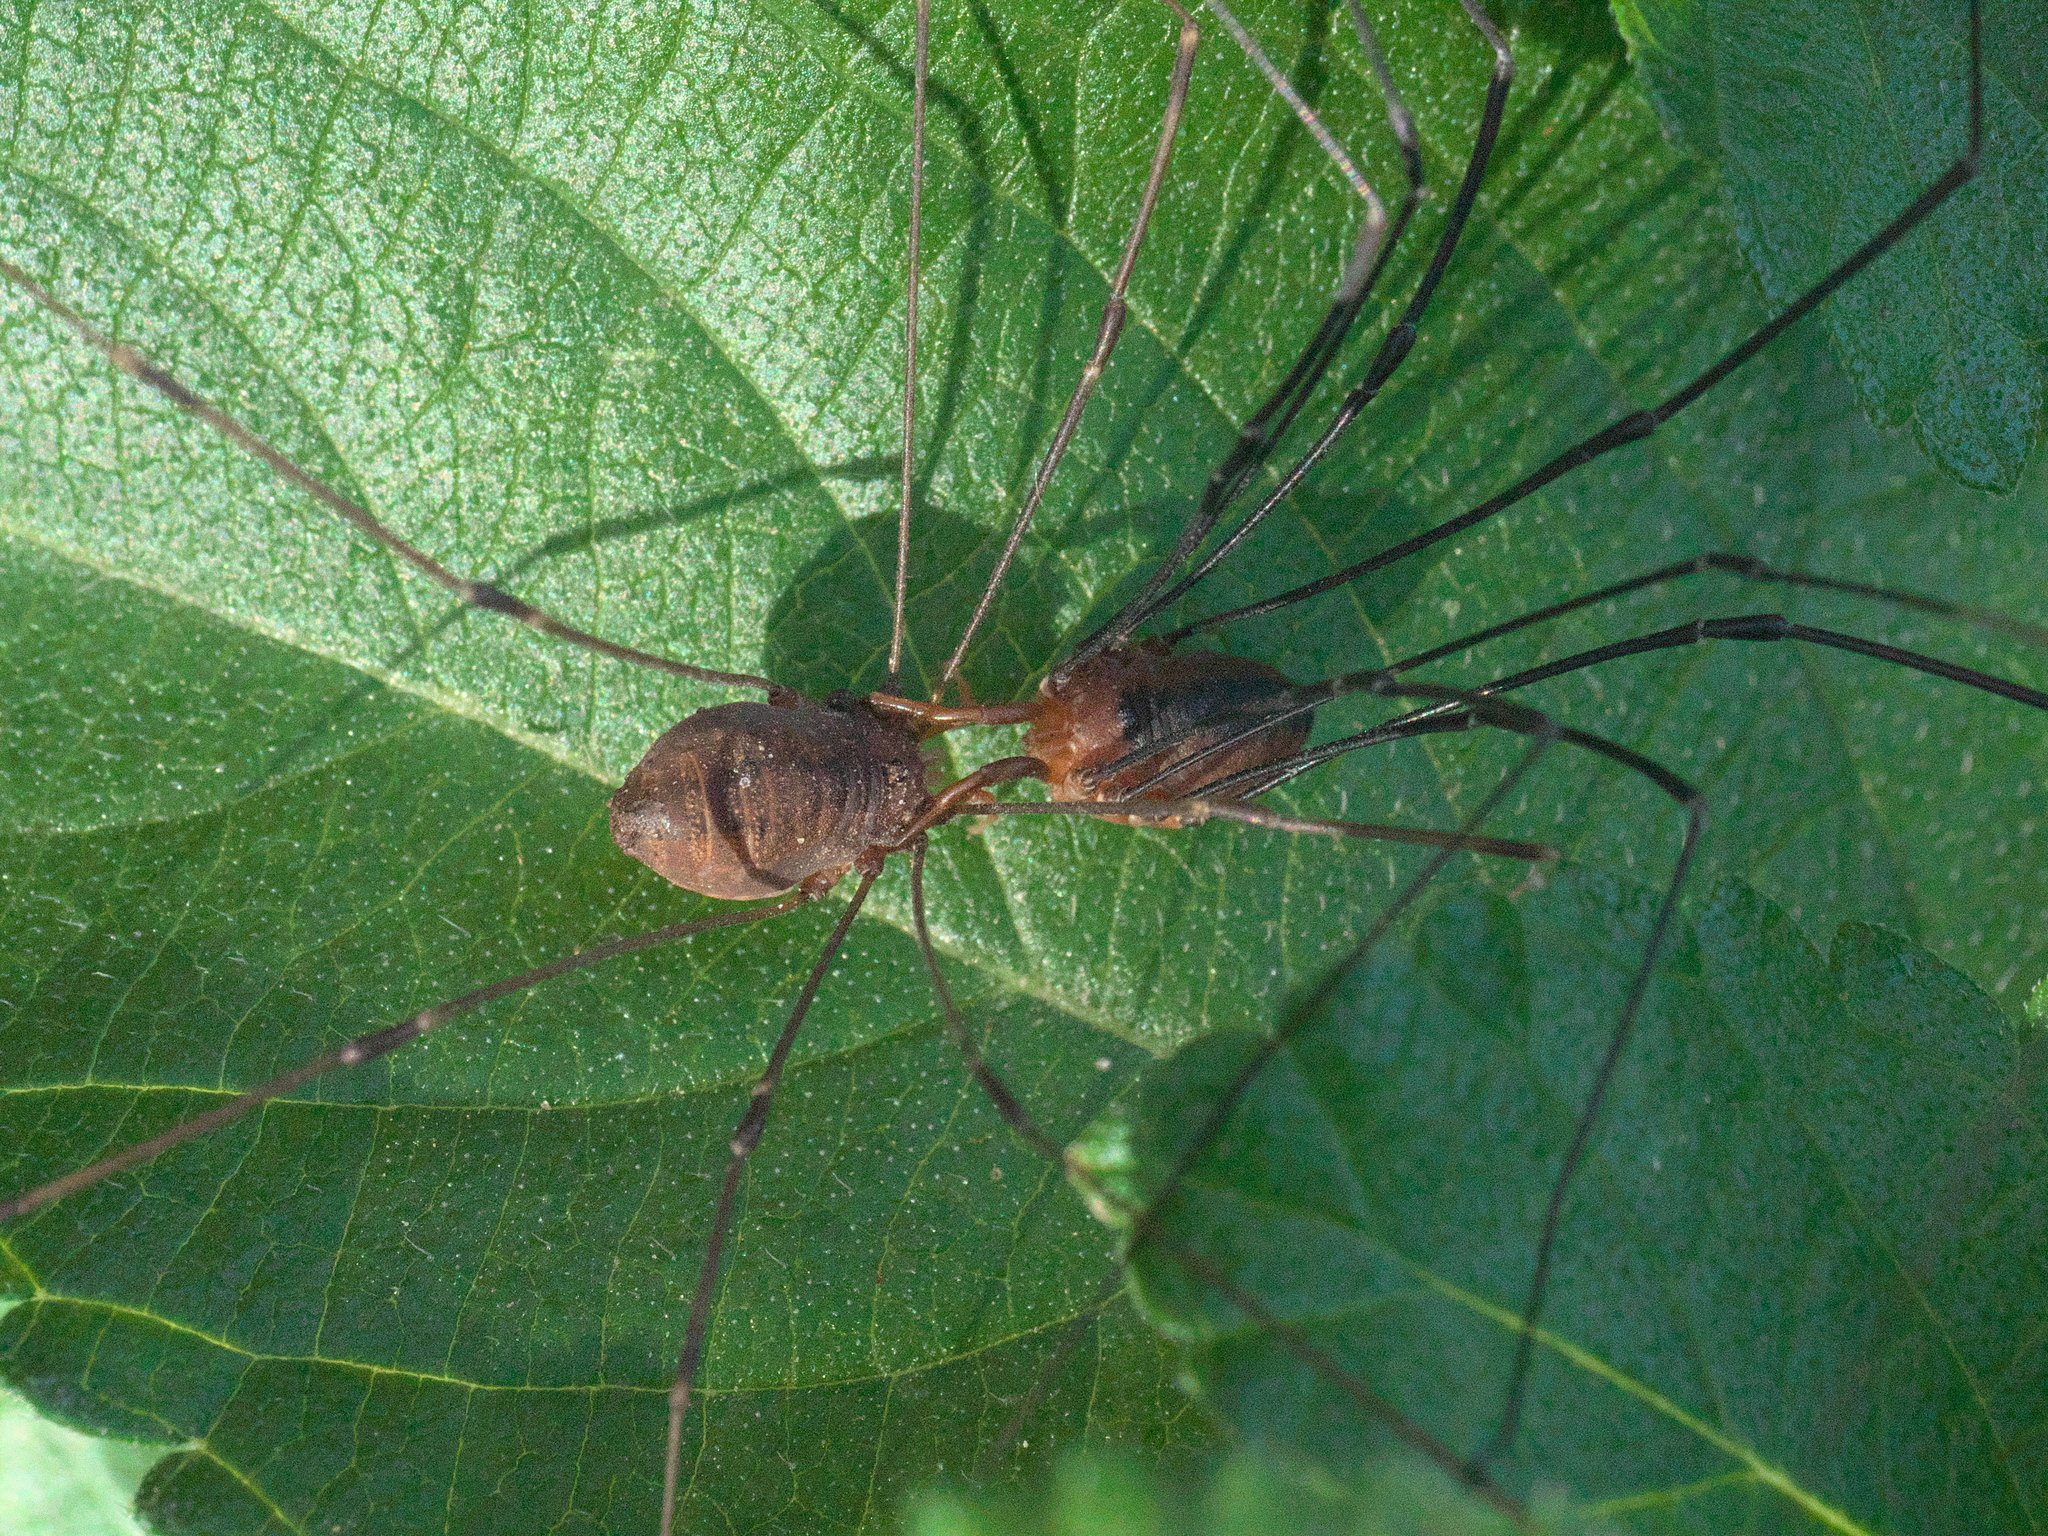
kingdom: Animalia
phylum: Arthropoda
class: Arachnida
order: Opiliones
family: Sclerosomatidae
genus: Leiobunum
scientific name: Leiobunum vittatum
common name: Eastern harvestman
